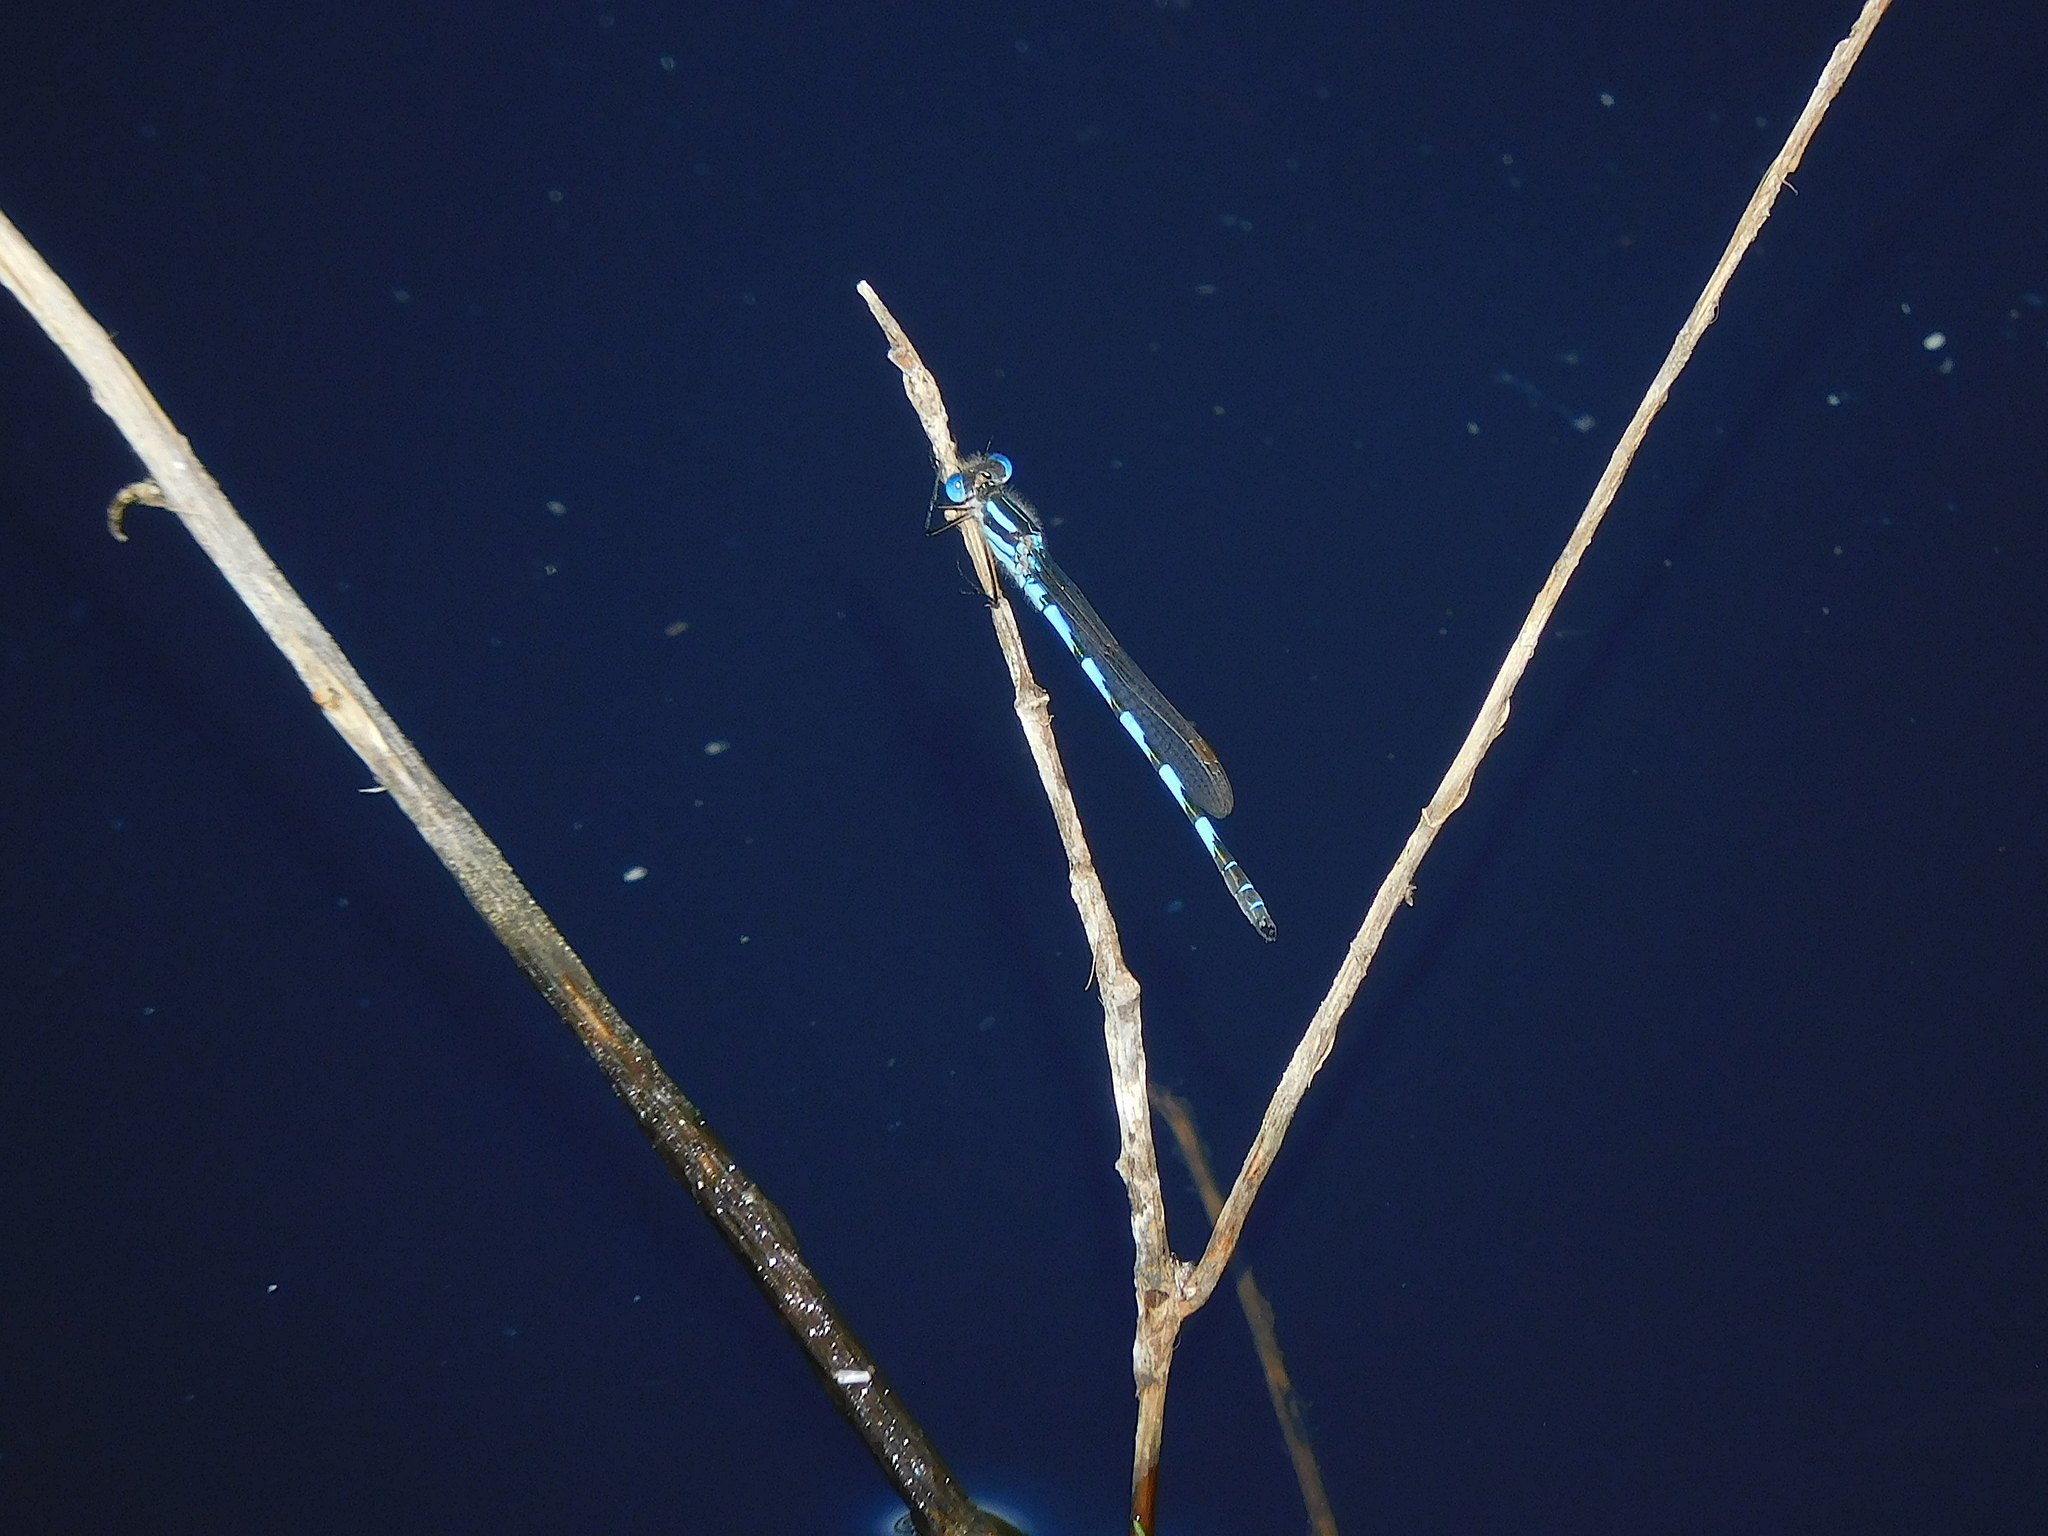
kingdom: Animalia
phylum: Arthropoda
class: Insecta
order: Odonata
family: Lestidae
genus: Austrolestes
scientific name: Austrolestes annulosus
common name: Blue ringtail
